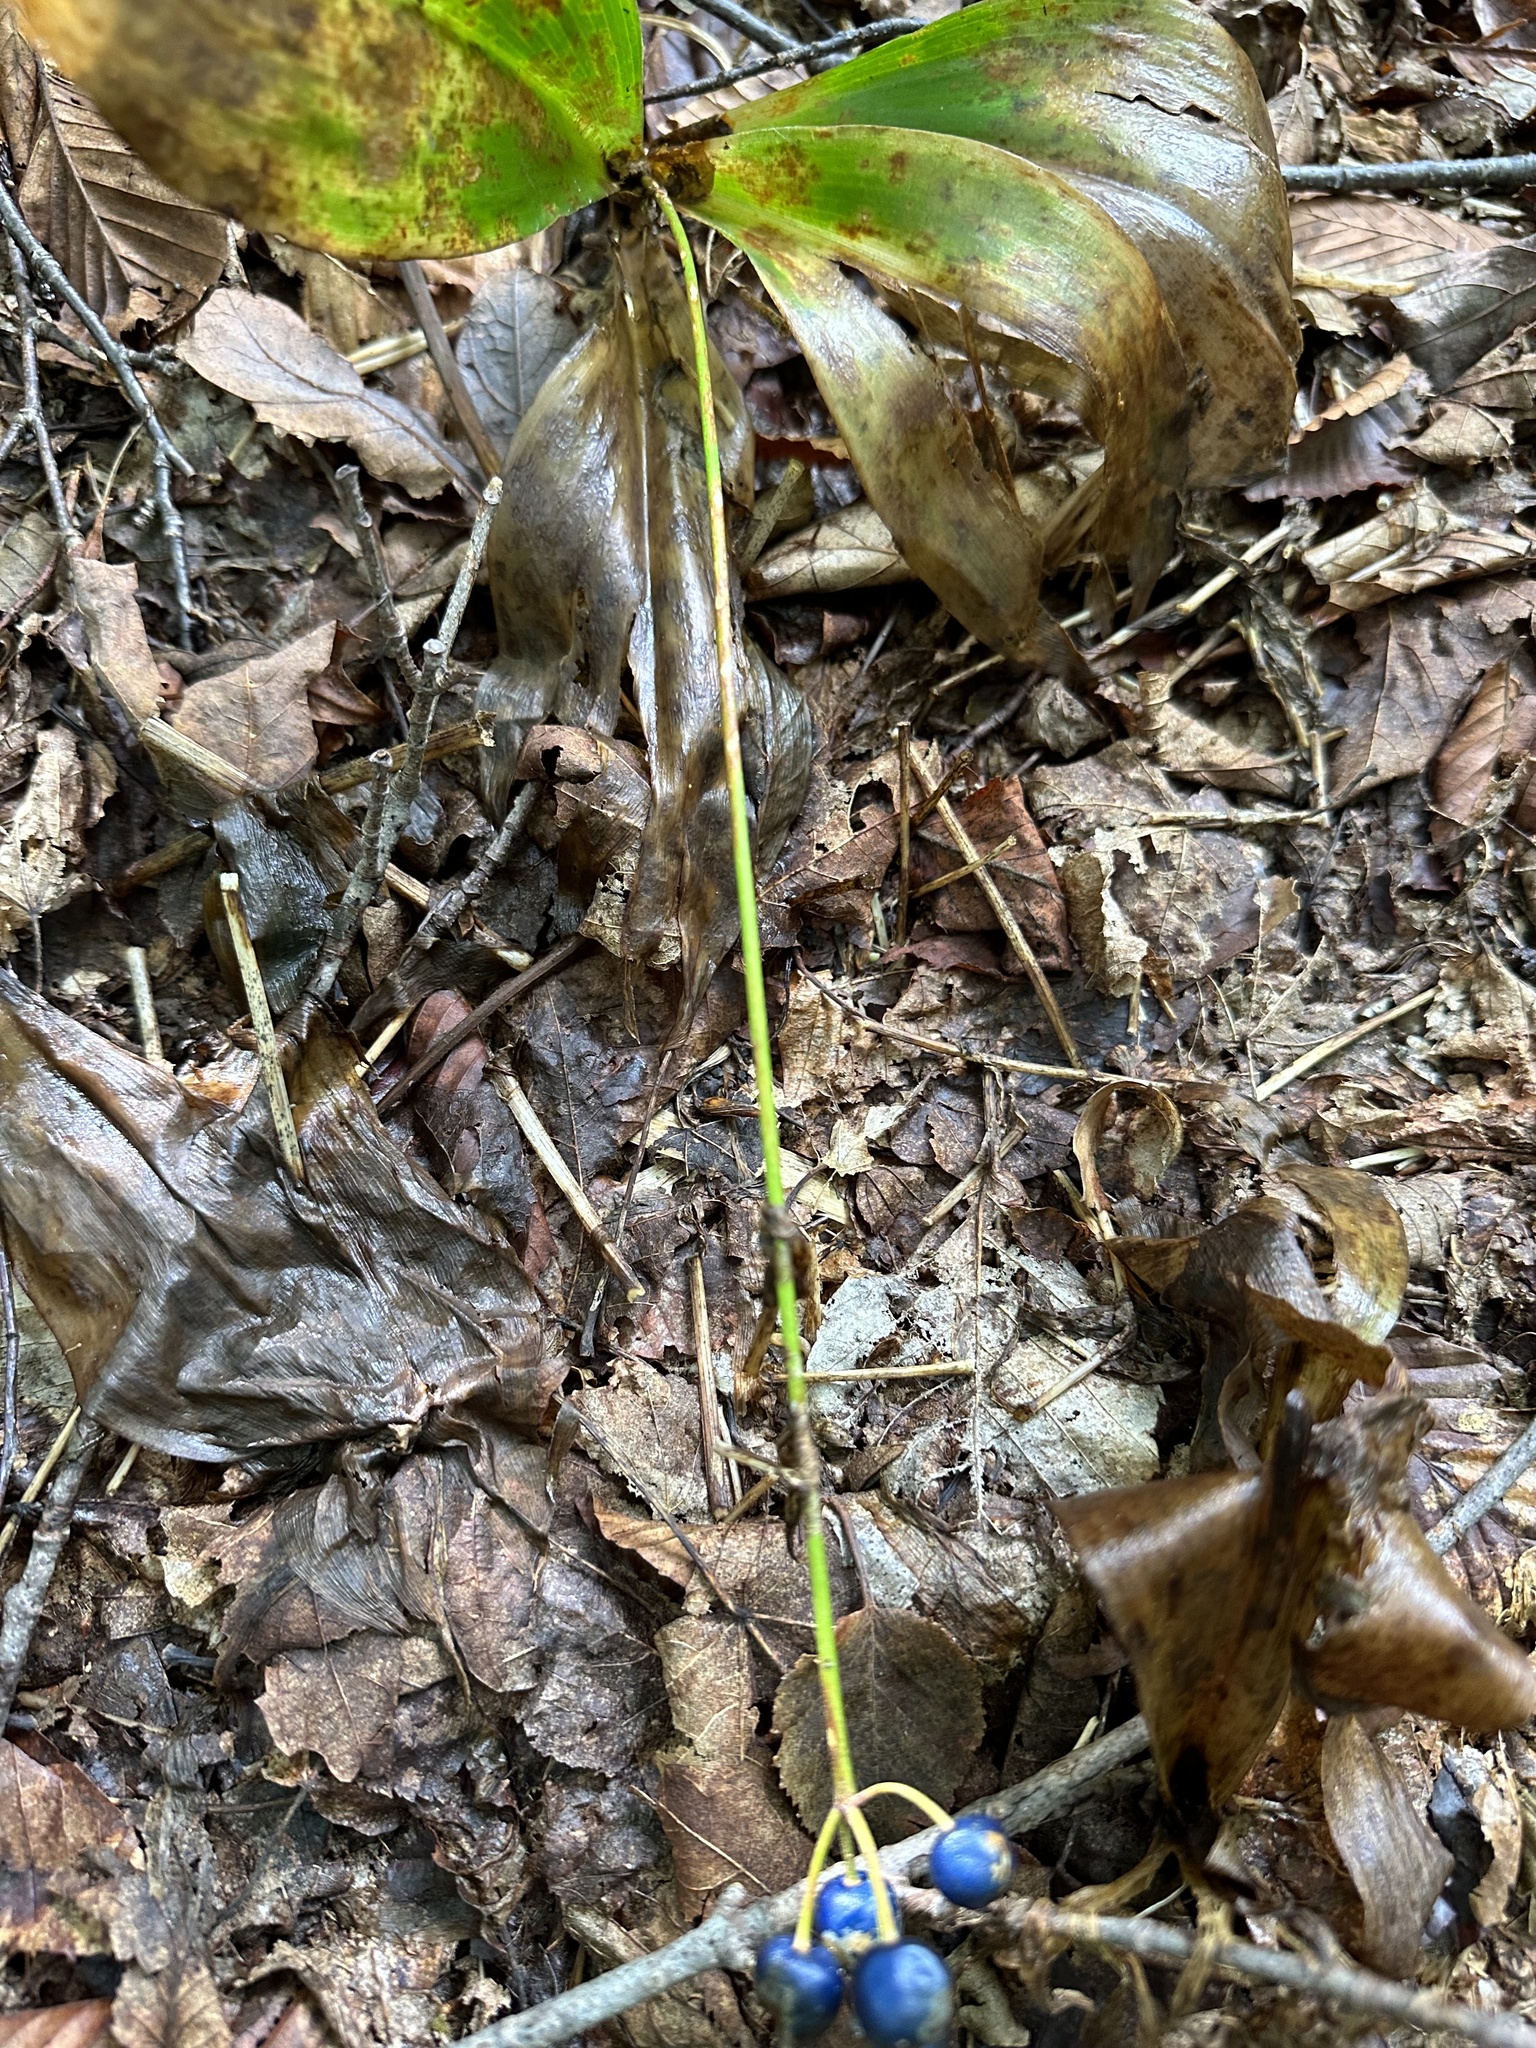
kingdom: Plantae
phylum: Tracheophyta
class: Liliopsida
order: Liliales
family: Liliaceae
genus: Clintonia
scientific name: Clintonia borealis
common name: Yellow clintonia
